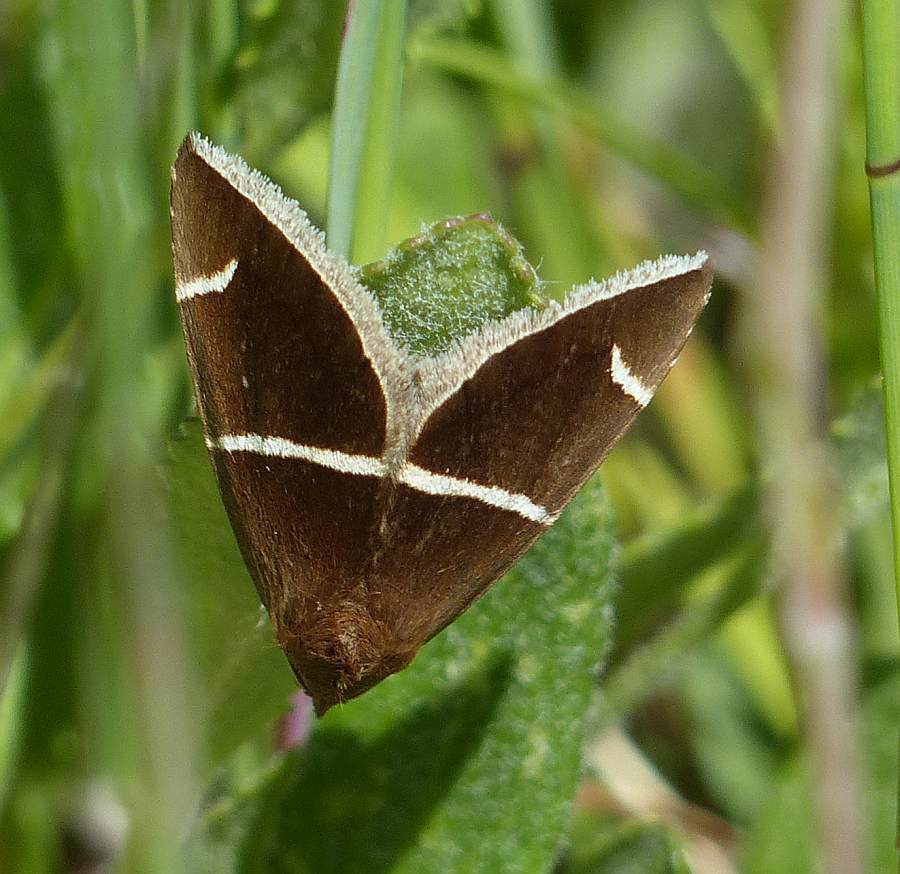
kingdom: Animalia
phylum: Arthropoda
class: Insecta
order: Lepidoptera
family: Erebidae
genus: Argyrostrotis
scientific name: Argyrostrotis anilis
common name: Short-lined chocolate
